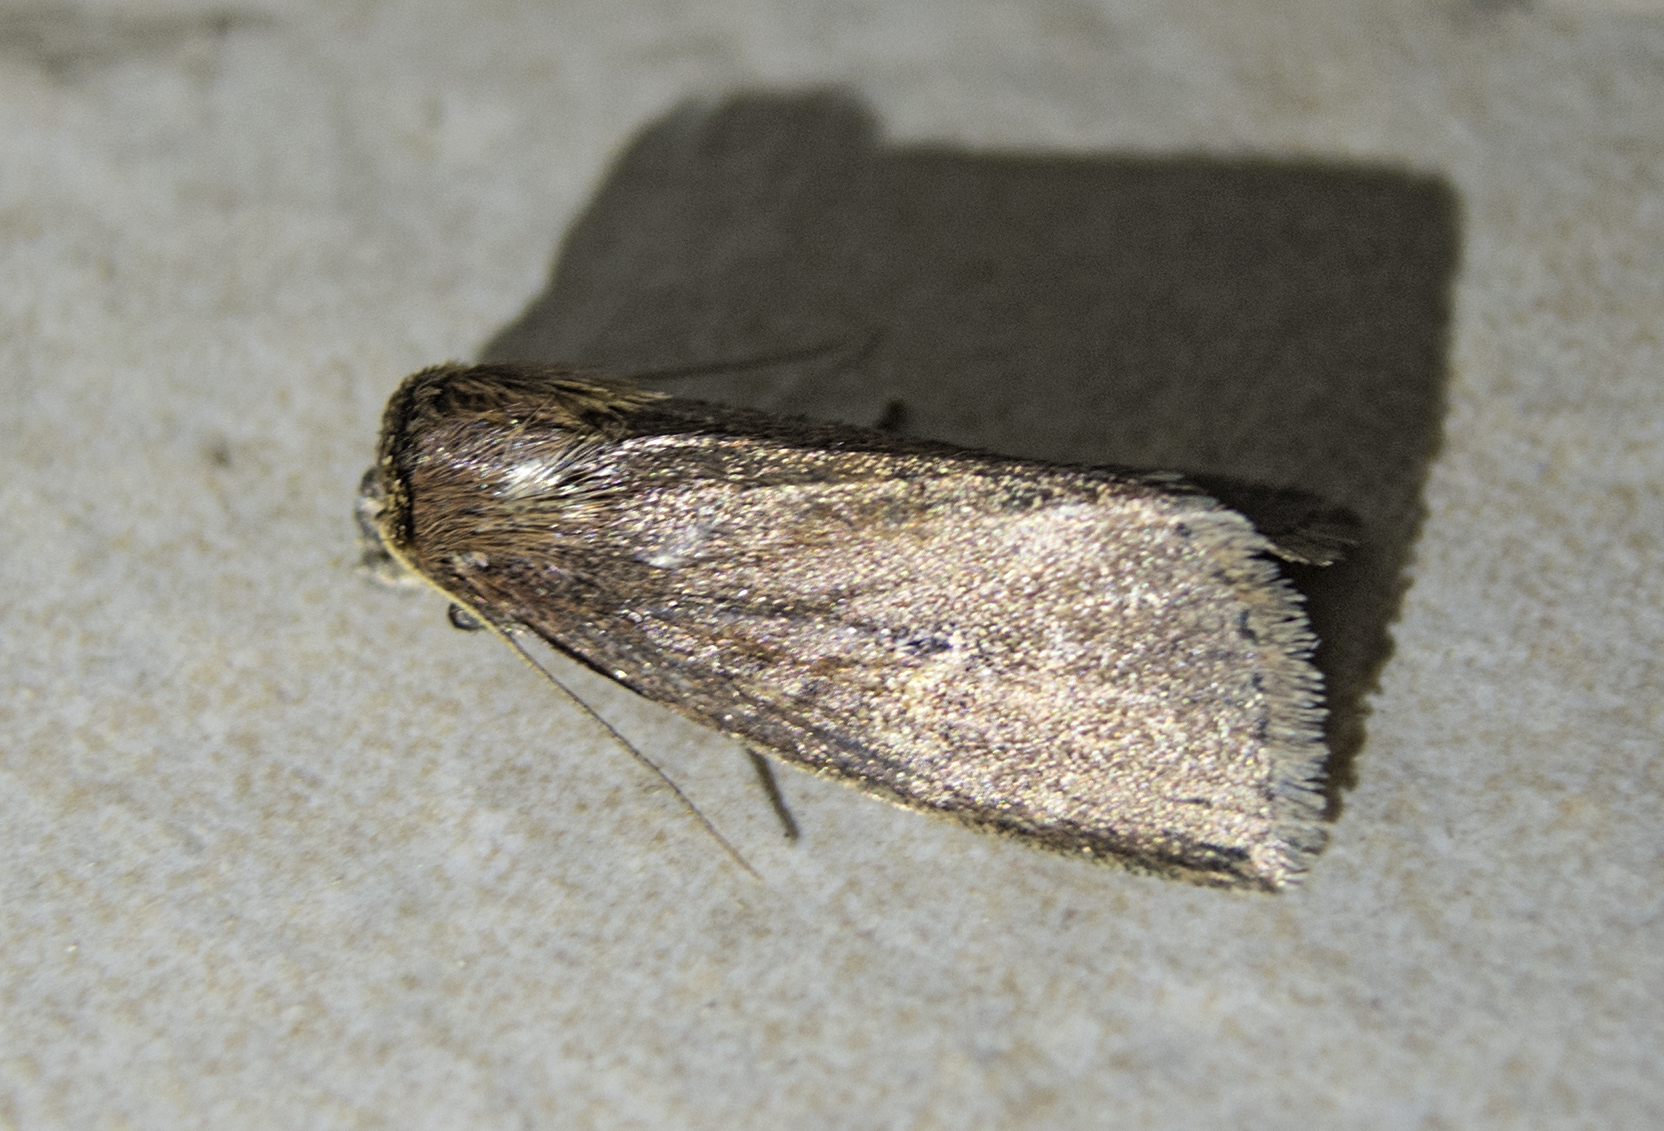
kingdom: Animalia
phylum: Arthropoda
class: Insecta
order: Lepidoptera
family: Noctuidae
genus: Archanara
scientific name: Archanara dissoluta
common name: Brown-veined wainscot
